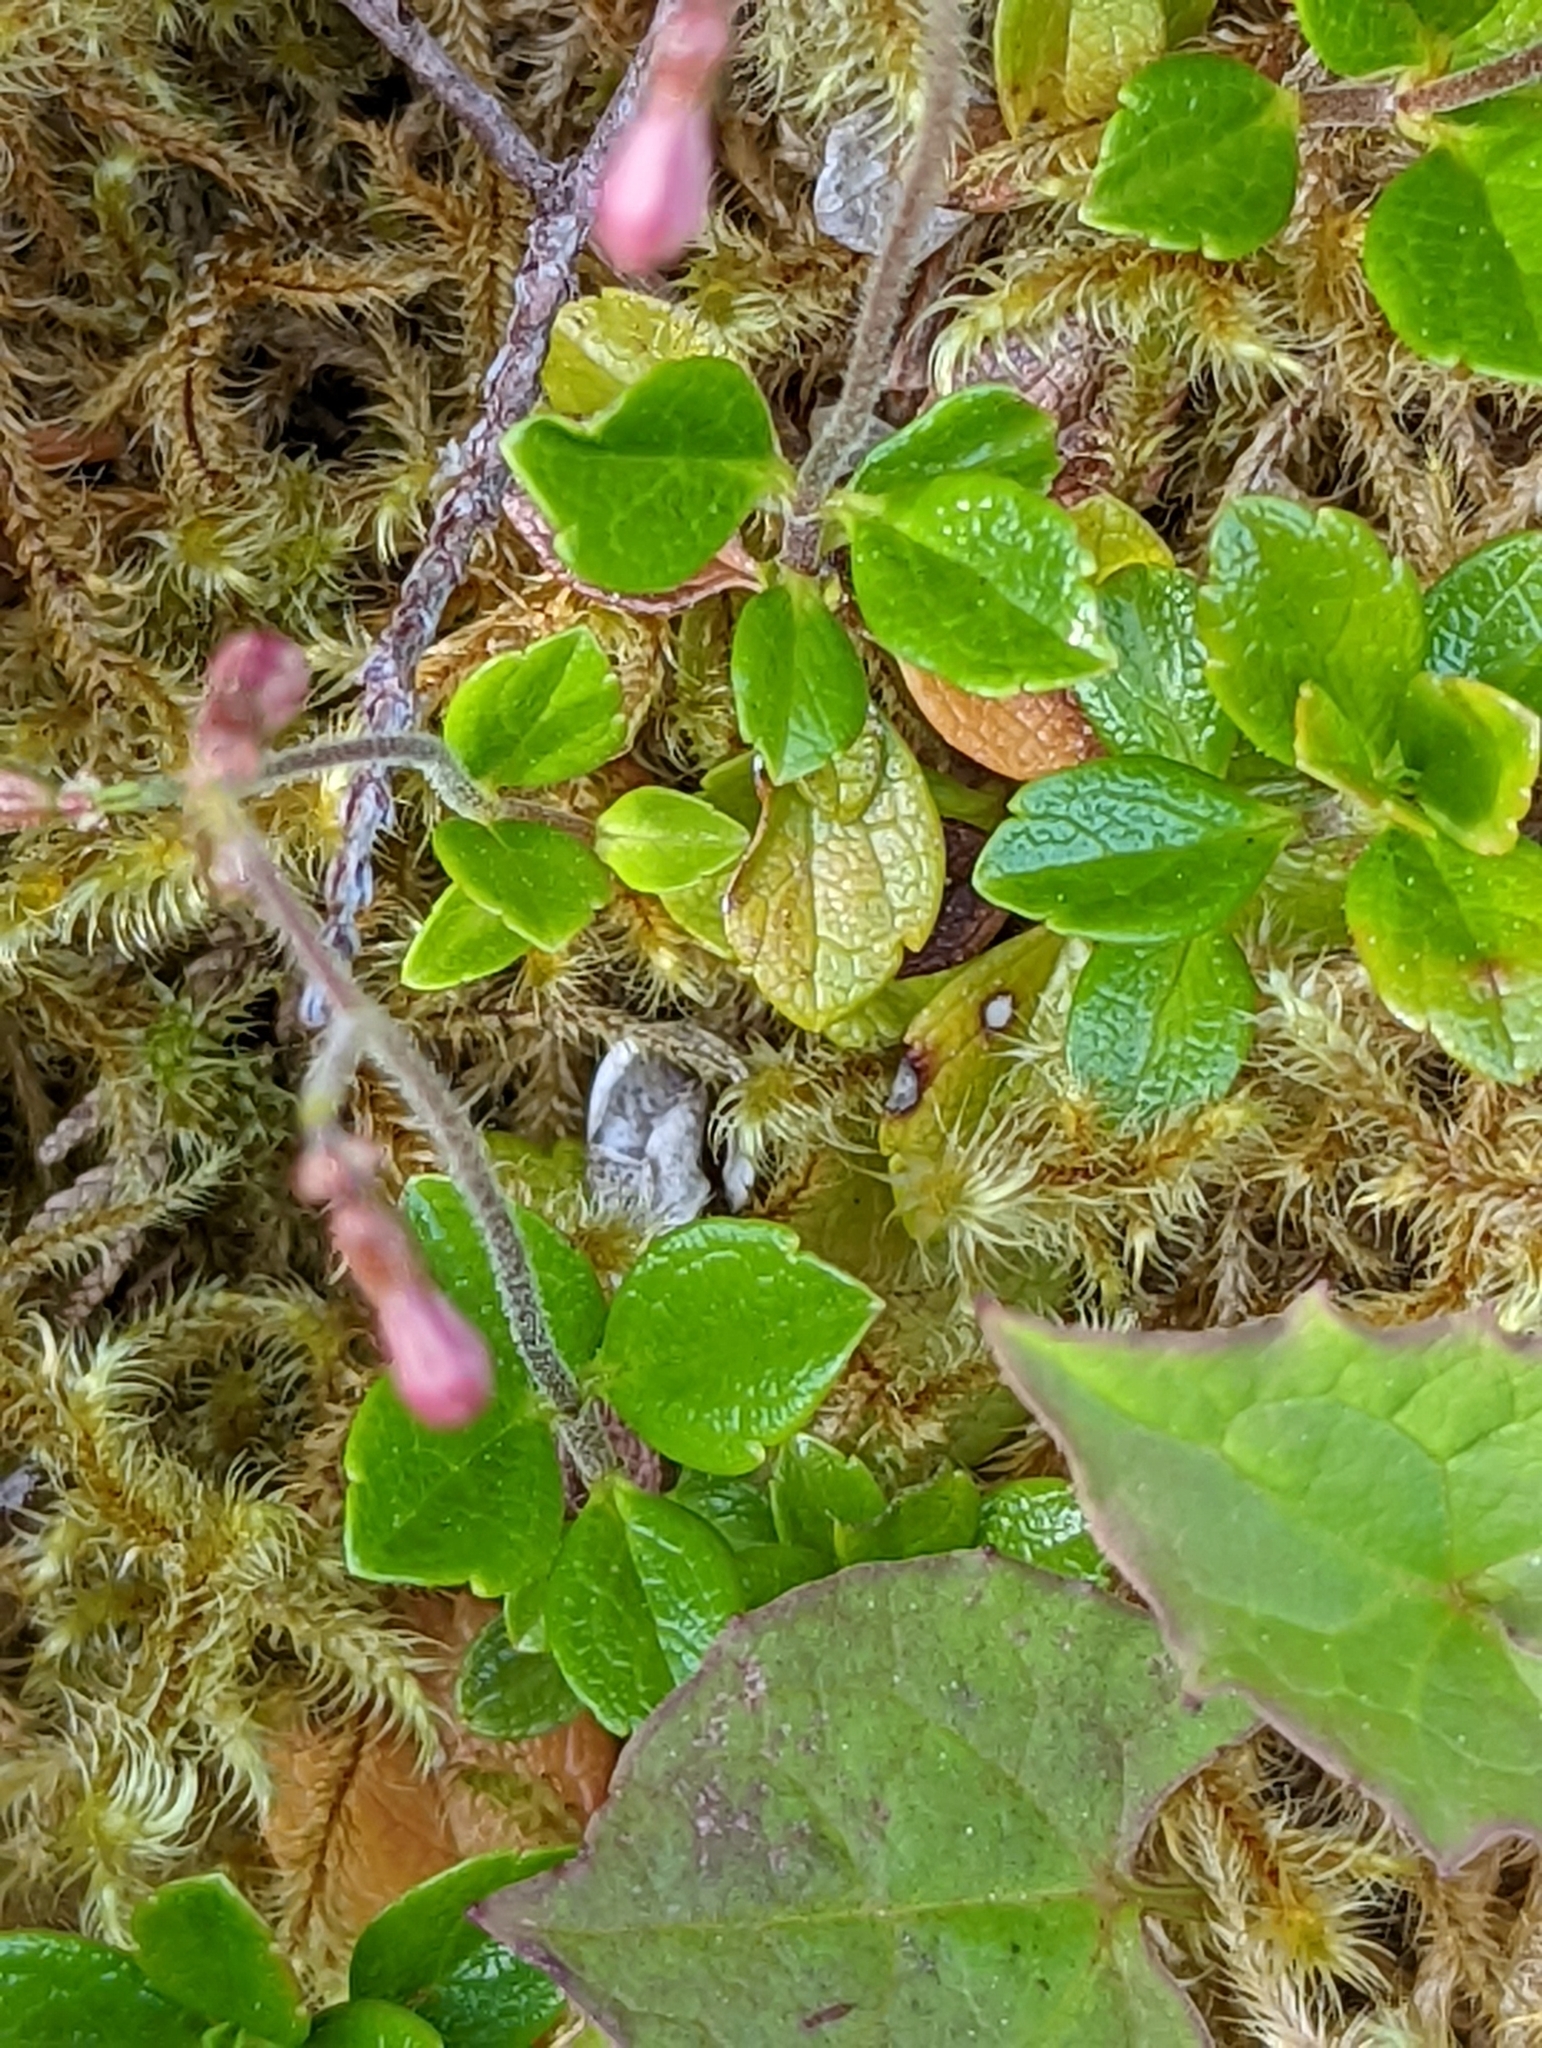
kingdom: Plantae
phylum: Tracheophyta
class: Magnoliopsida
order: Dipsacales
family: Caprifoliaceae
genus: Linnaea
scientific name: Linnaea borealis
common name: Twinflower
